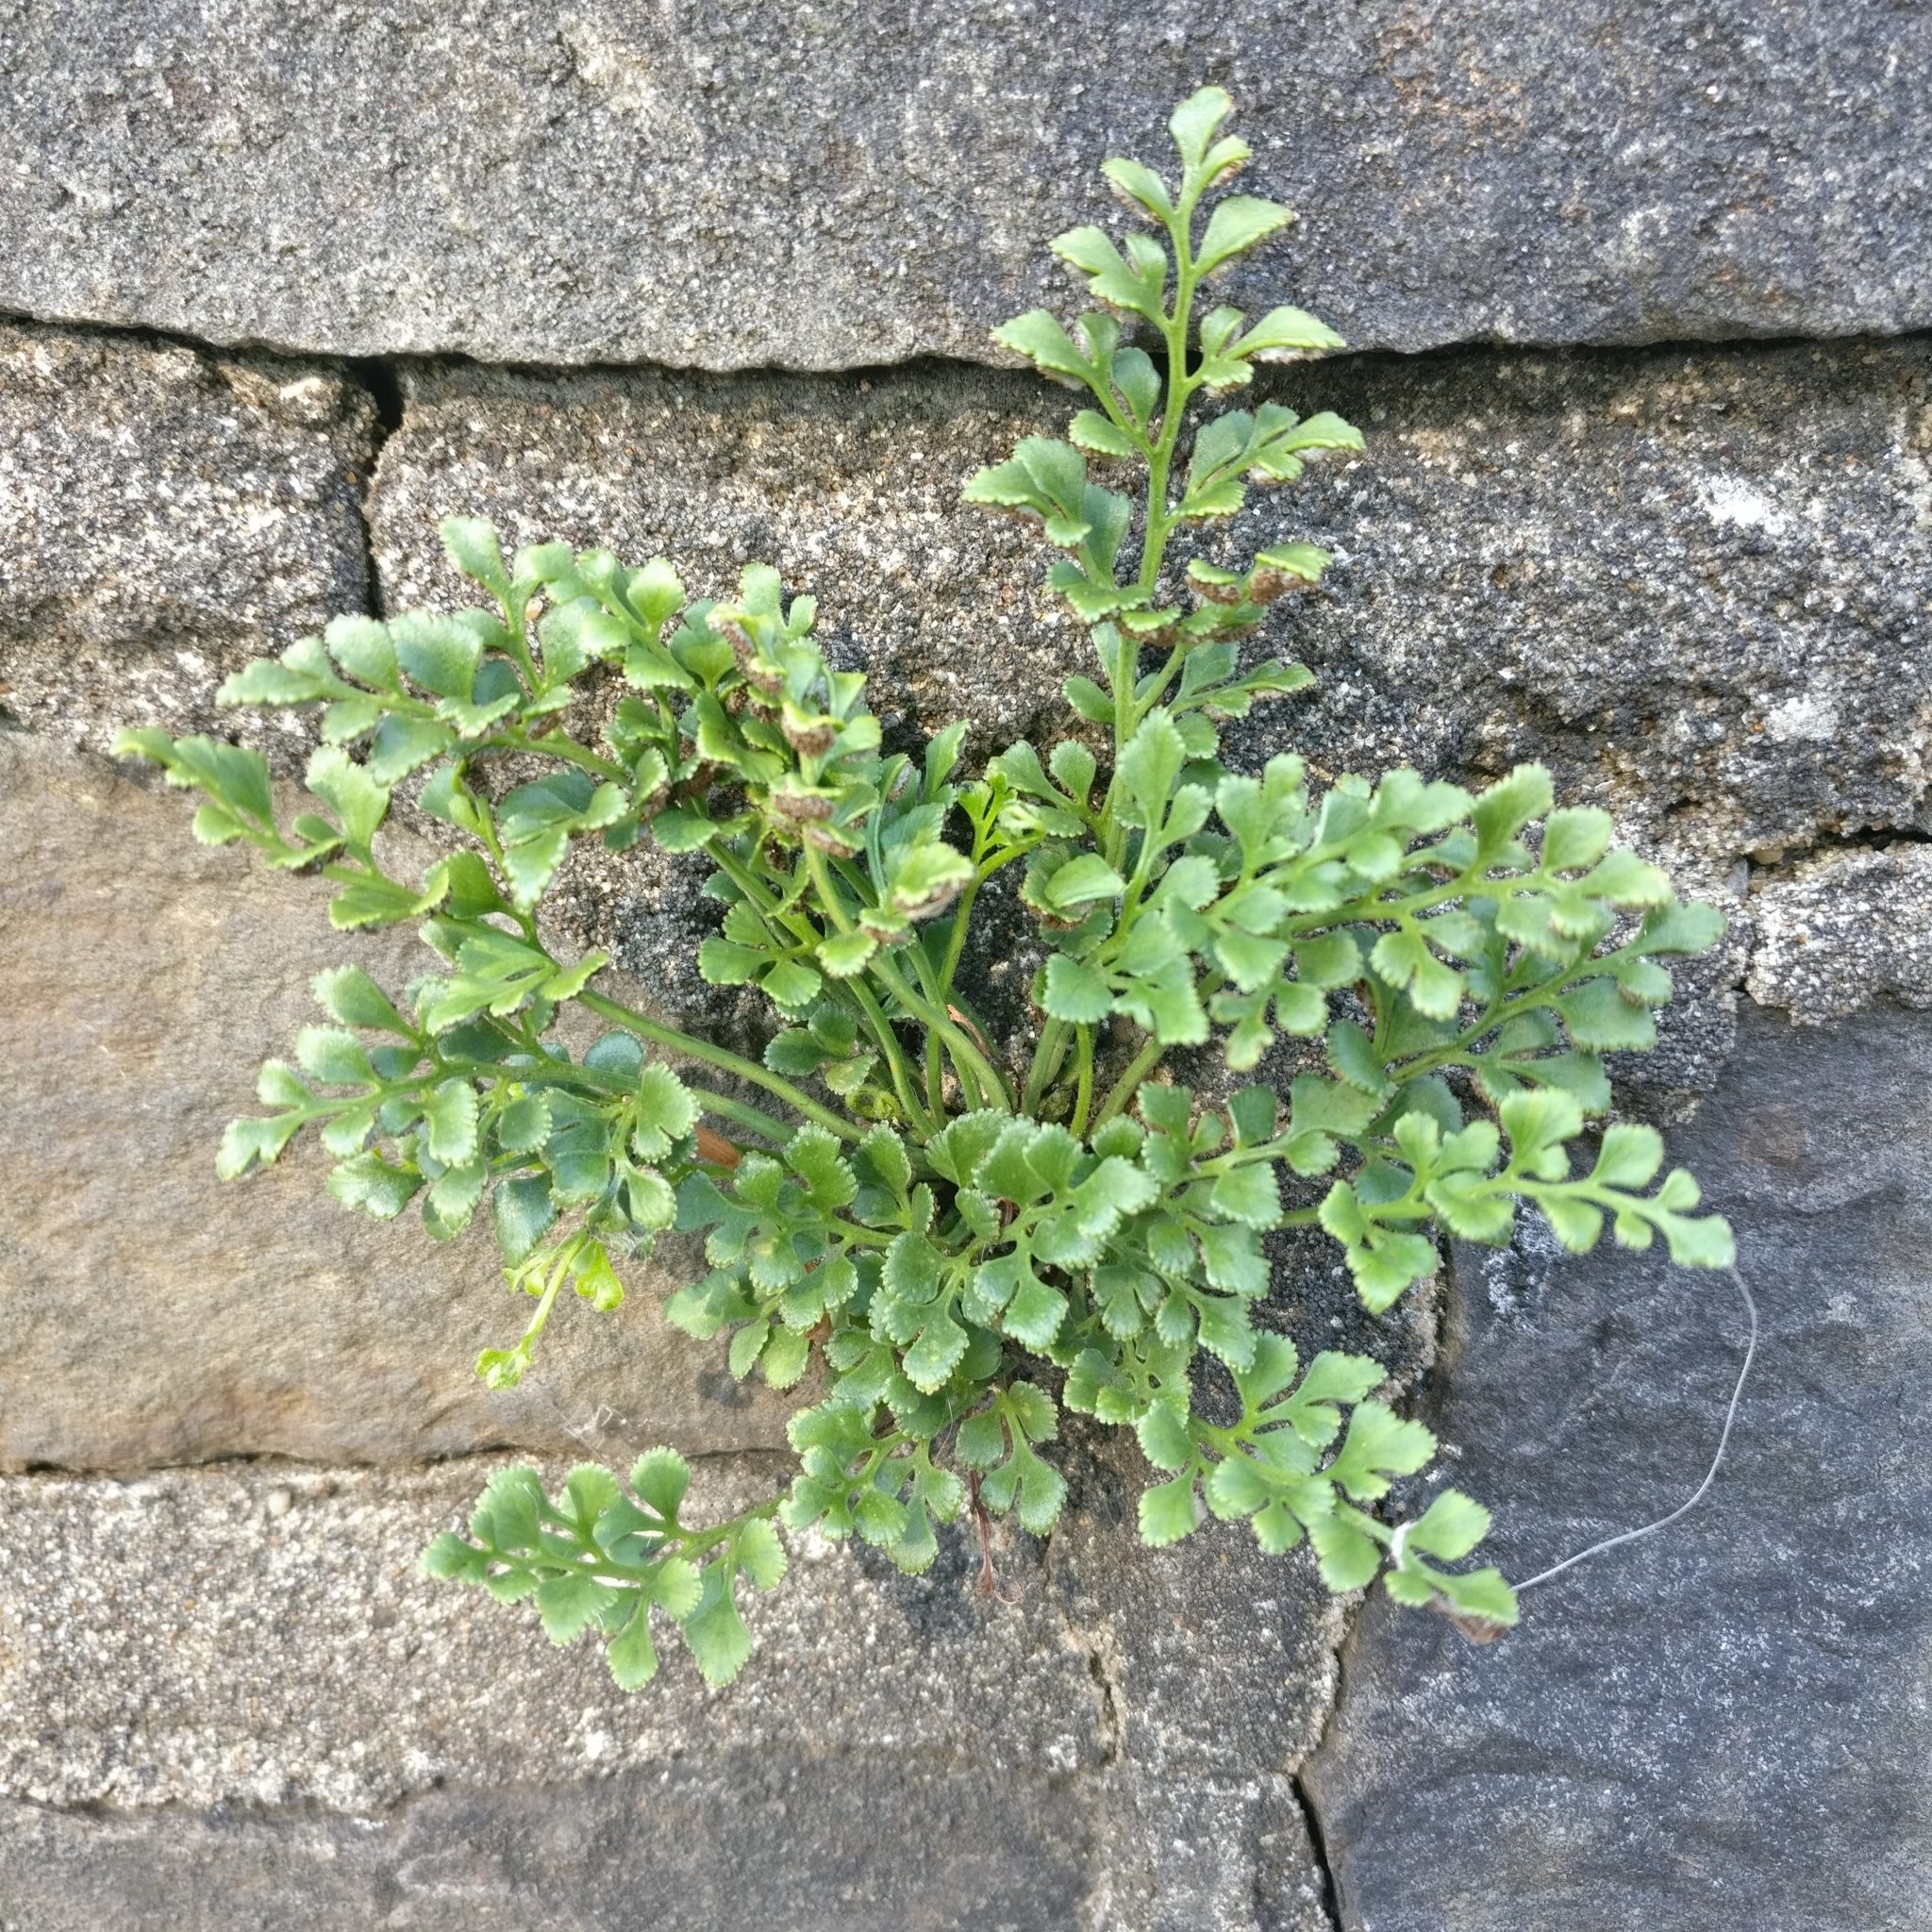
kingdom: Plantae
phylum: Tracheophyta
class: Polypodiopsida
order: Polypodiales
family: Aspleniaceae
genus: Asplenium
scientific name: Asplenium ruta-muraria
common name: Wall-rue
